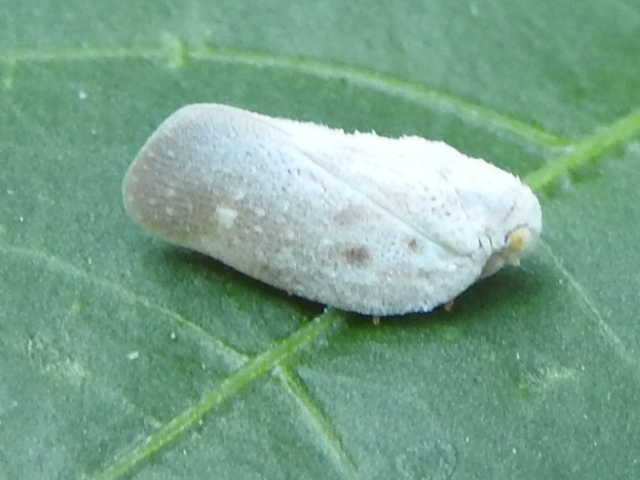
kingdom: Animalia
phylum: Arthropoda
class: Insecta
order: Hemiptera
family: Flatidae
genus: Metcalfa
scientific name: Metcalfa pruinosa
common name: Citrus flatid planthopper
